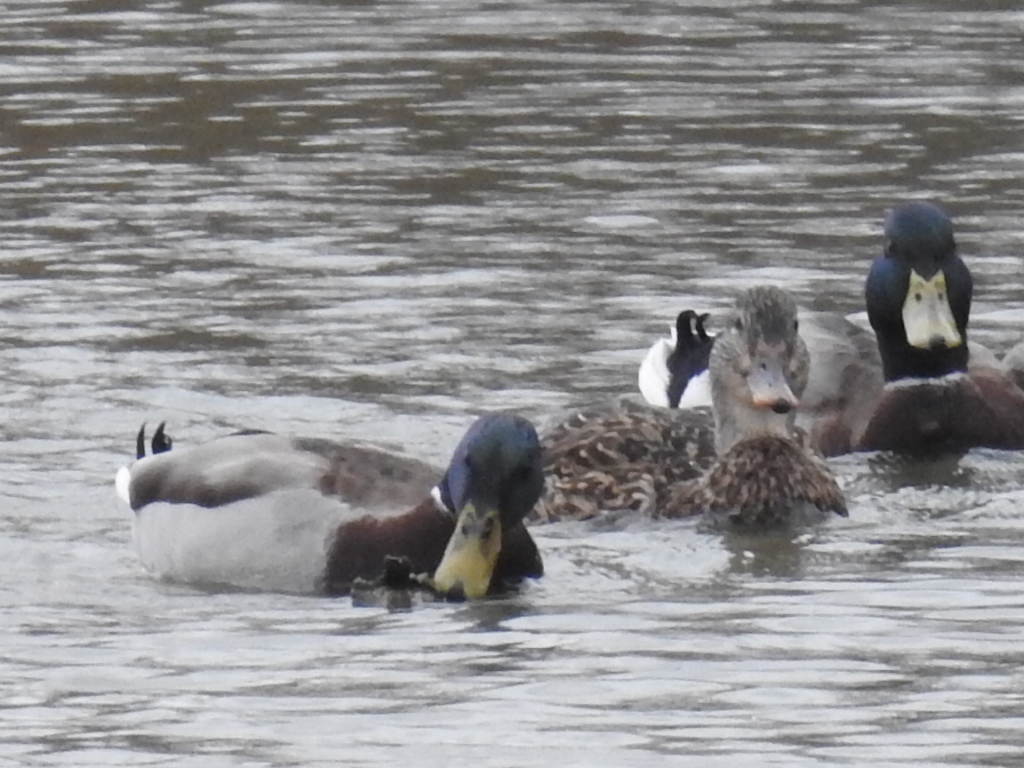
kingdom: Animalia
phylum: Chordata
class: Aves
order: Anseriformes
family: Anatidae
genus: Anas
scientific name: Anas platyrhynchos
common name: Mallard
